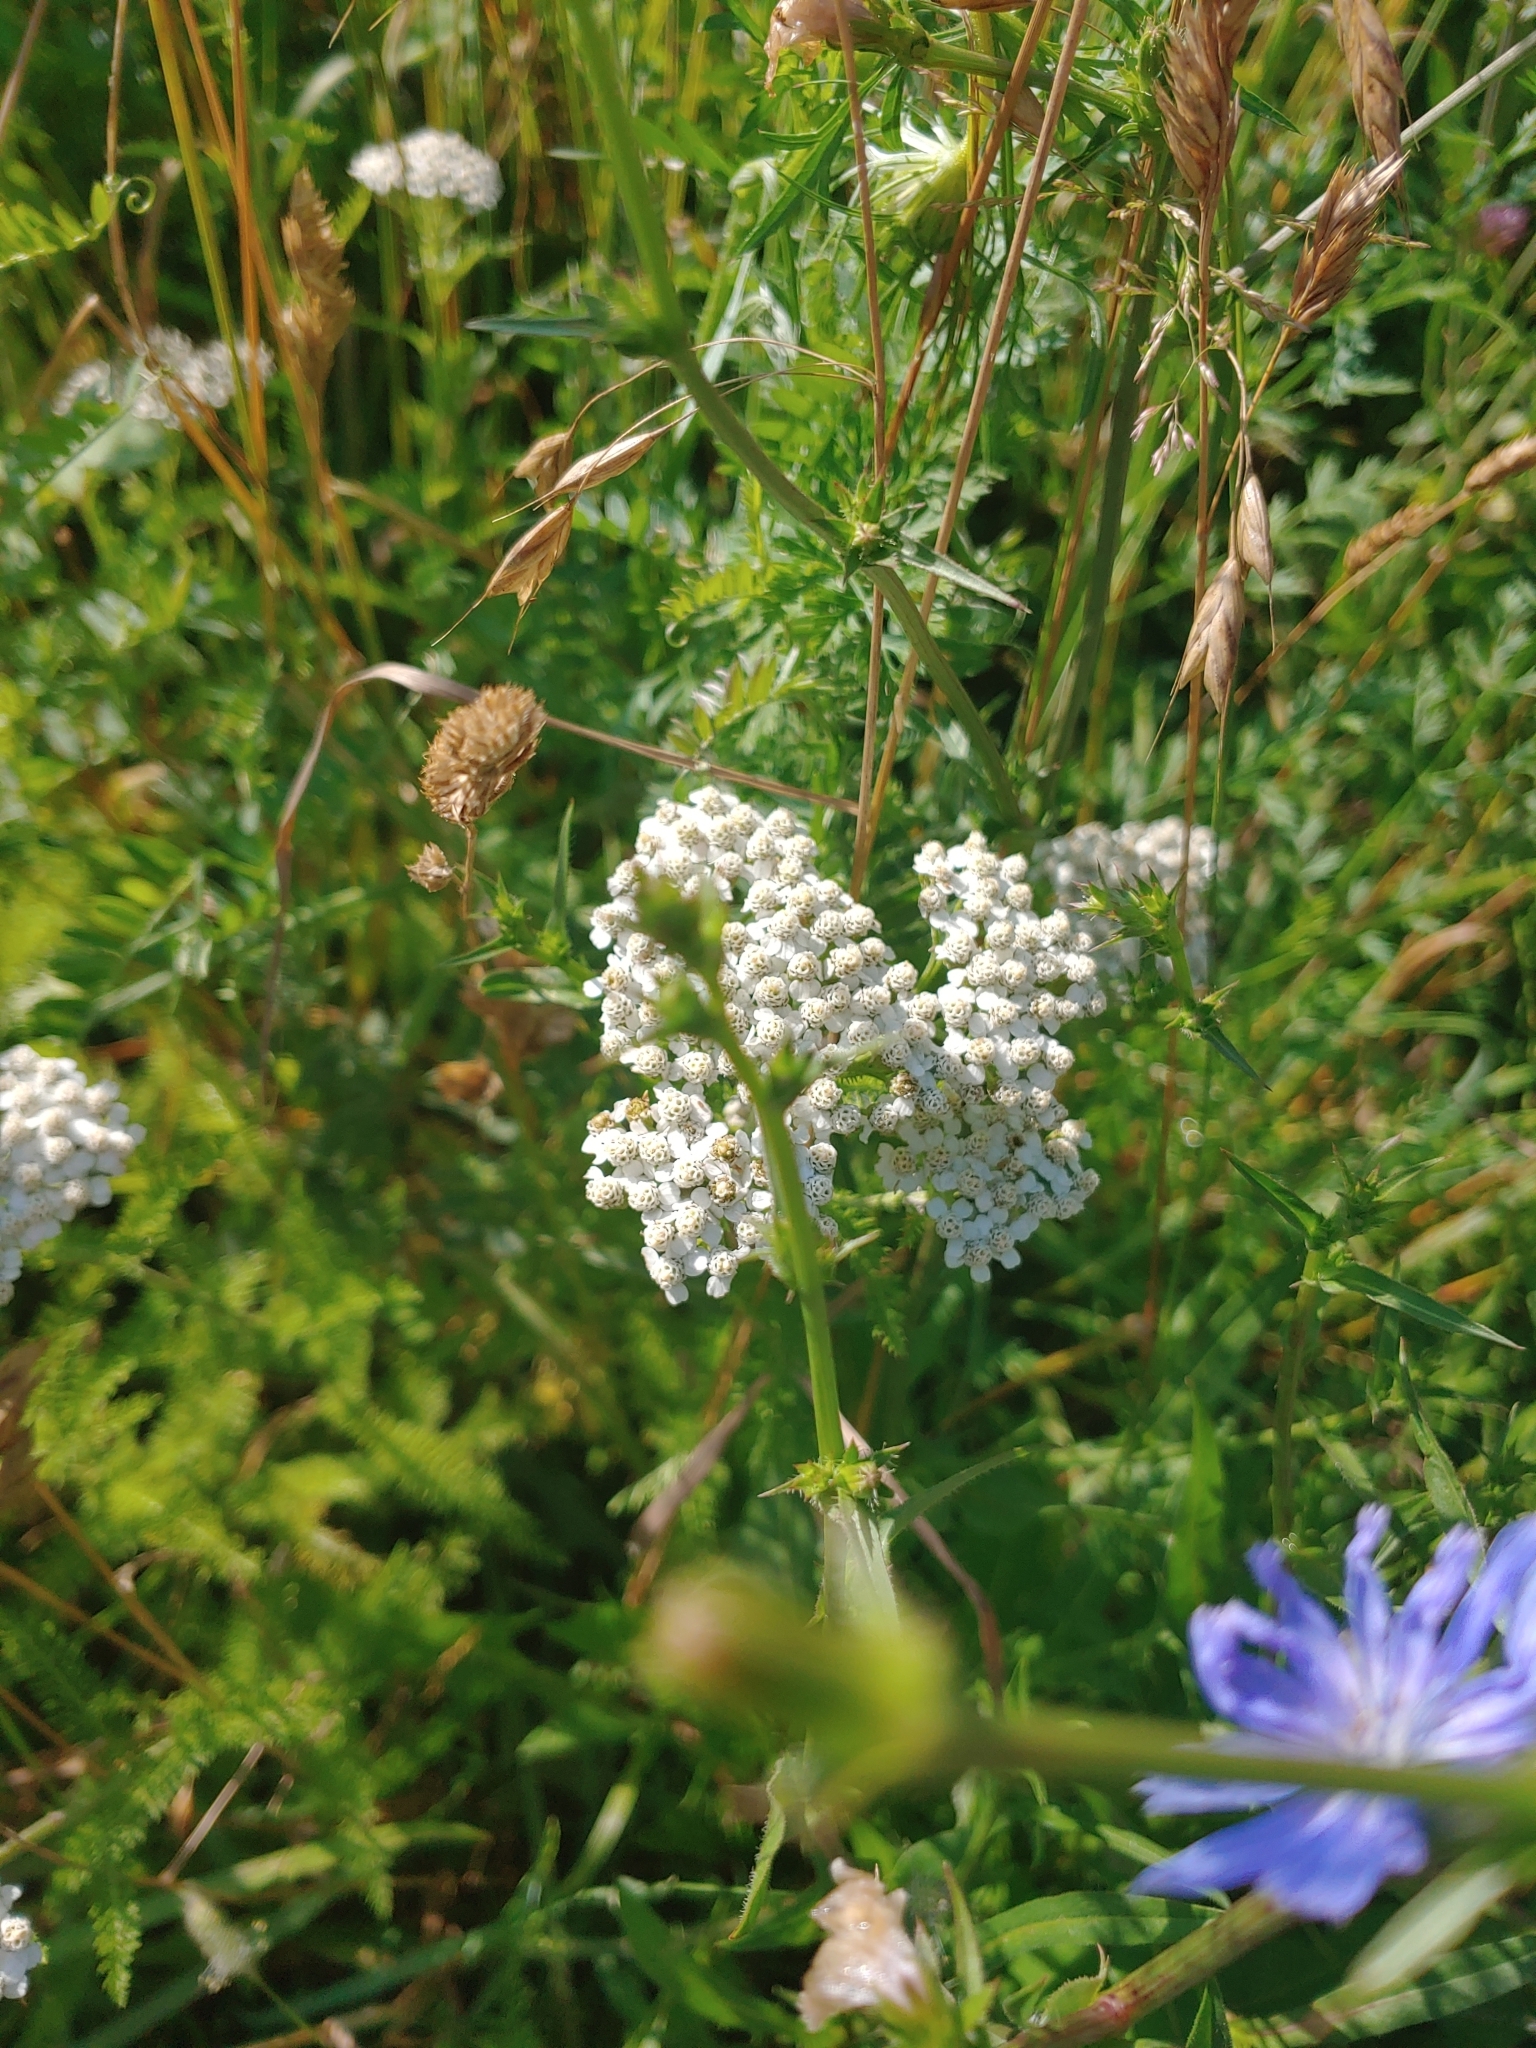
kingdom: Plantae
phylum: Tracheophyta
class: Magnoliopsida
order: Asterales
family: Asteraceae
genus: Achillea
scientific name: Achillea millefolium
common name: Yarrow
